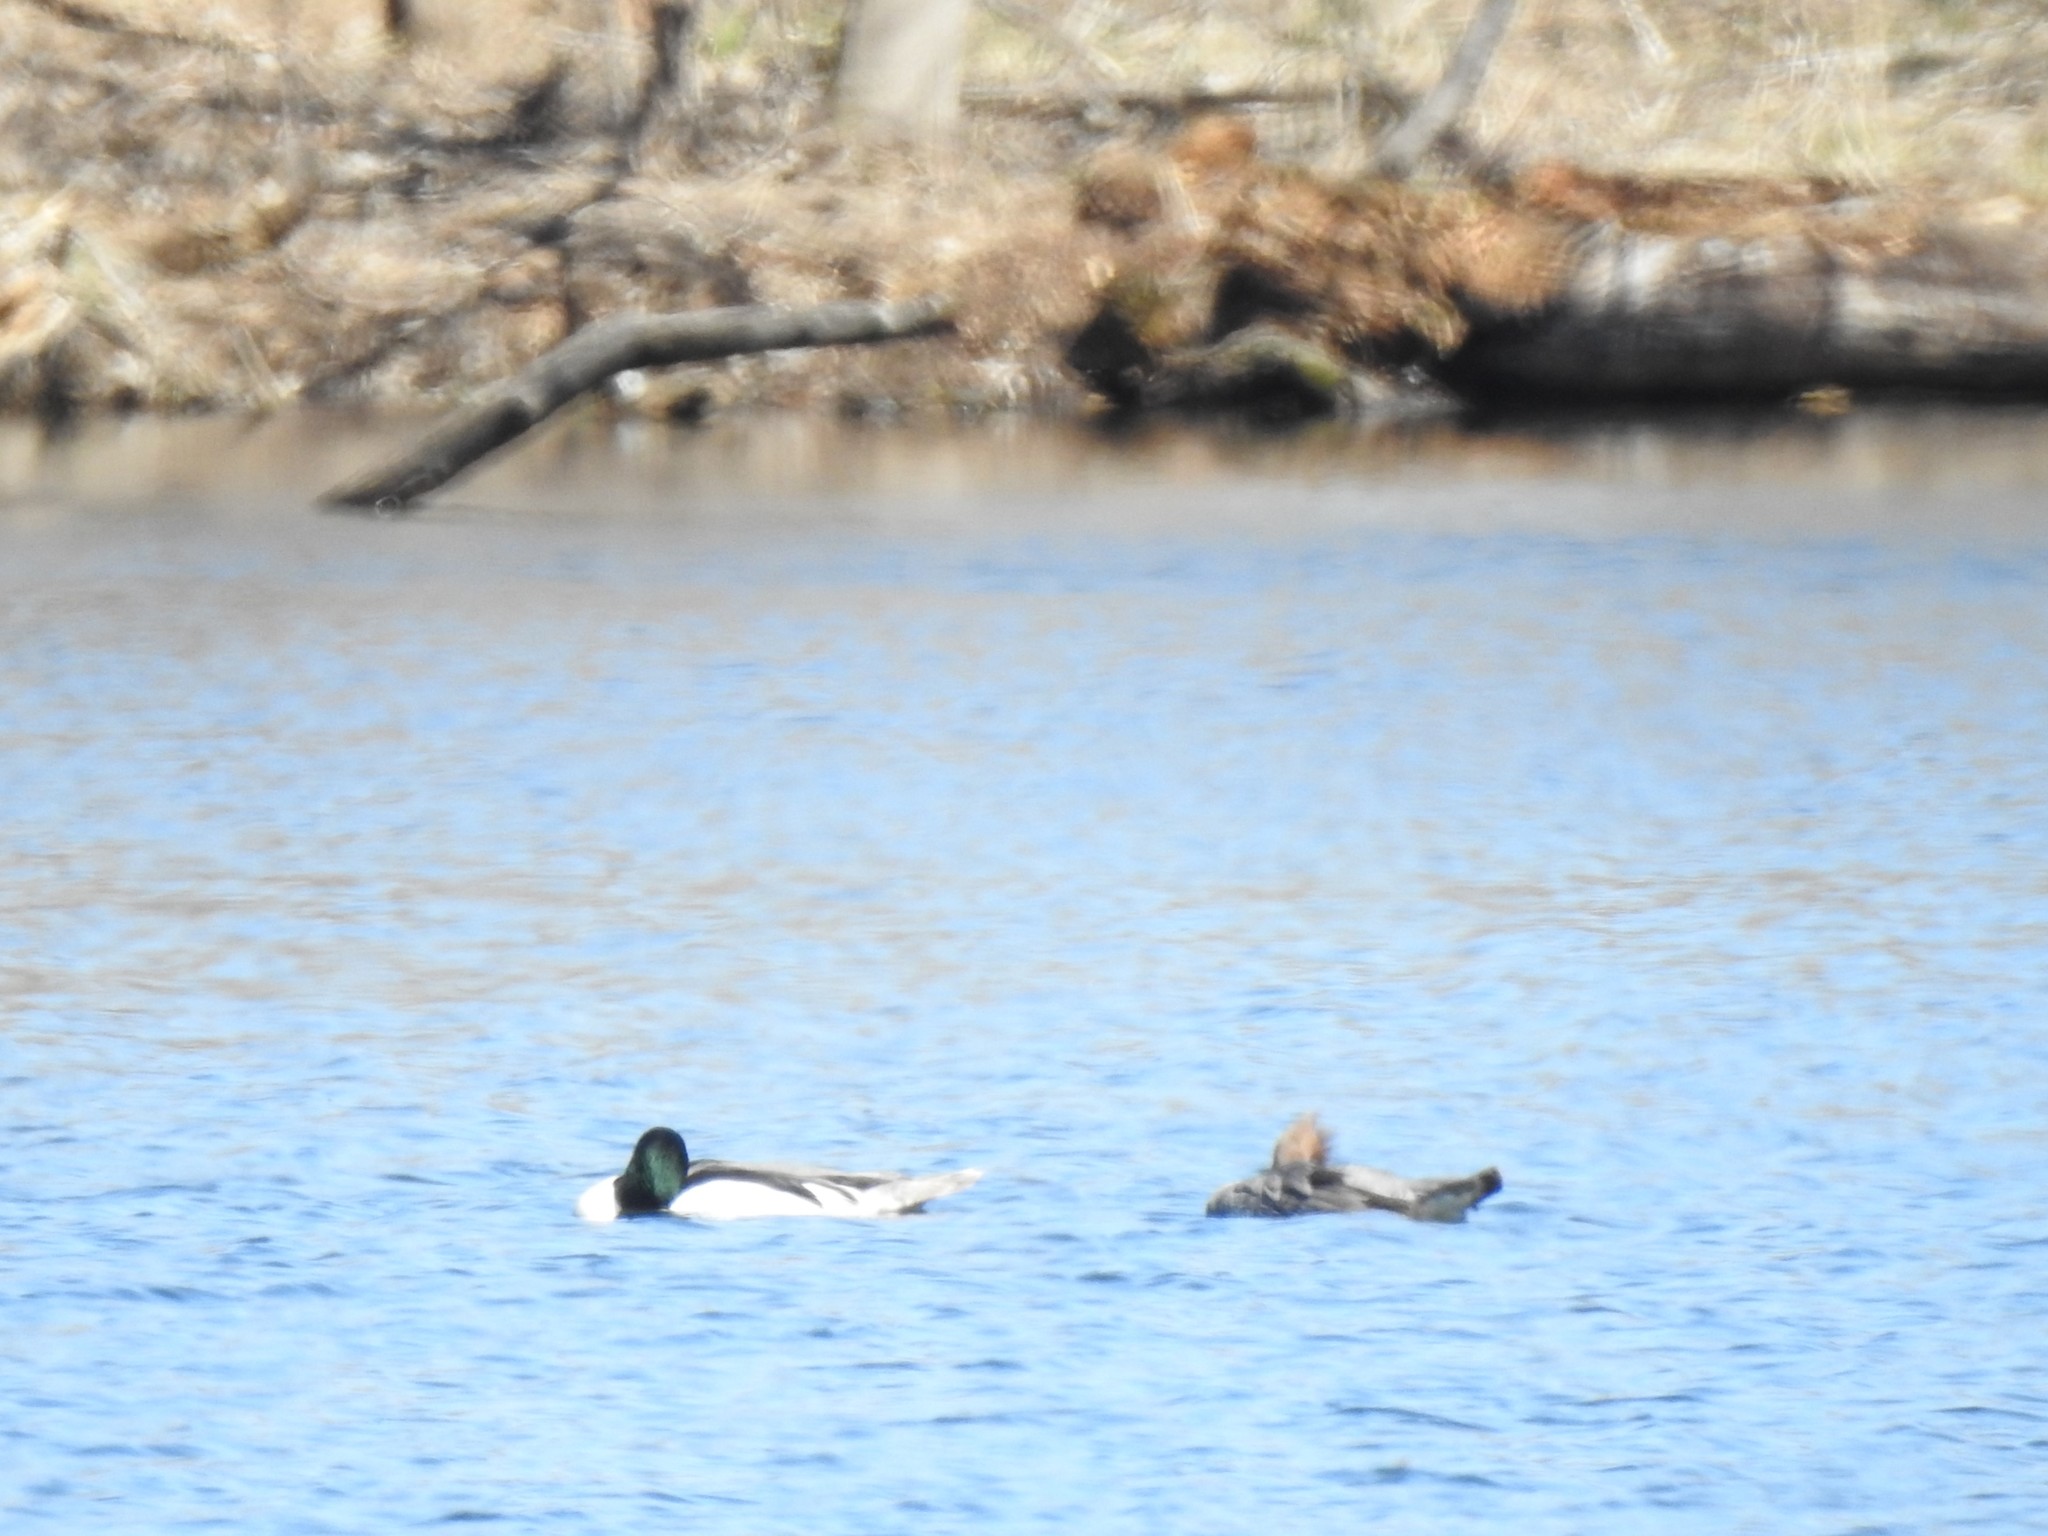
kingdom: Animalia
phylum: Chordata
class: Aves
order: Anseriformes
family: Anatidae
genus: Mergus
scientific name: Mergus merganser
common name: Common merganser
